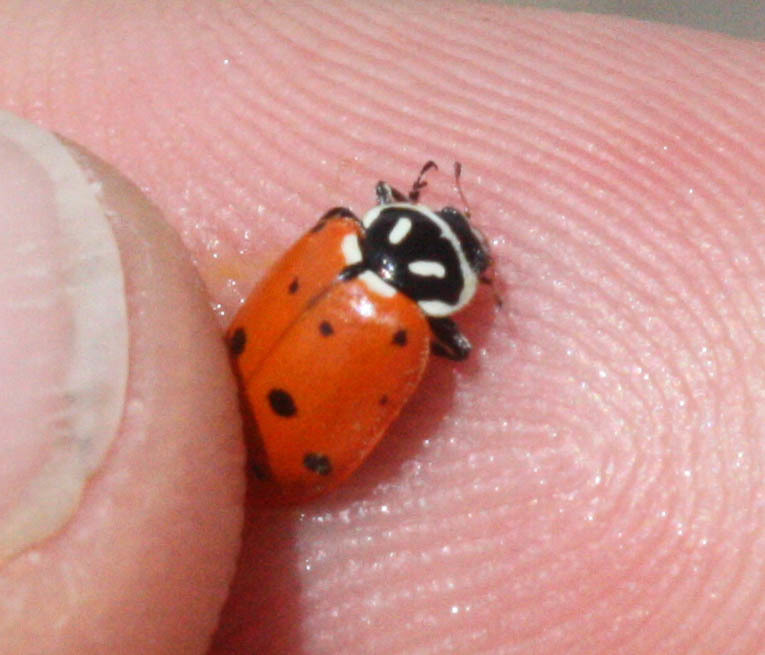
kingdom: Animalia
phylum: Arthropoda
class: Insecta
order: Coleoptera
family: Coccinellidae
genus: Hippodamia
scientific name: Hippodamia convergens
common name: Convergent lady beetle
